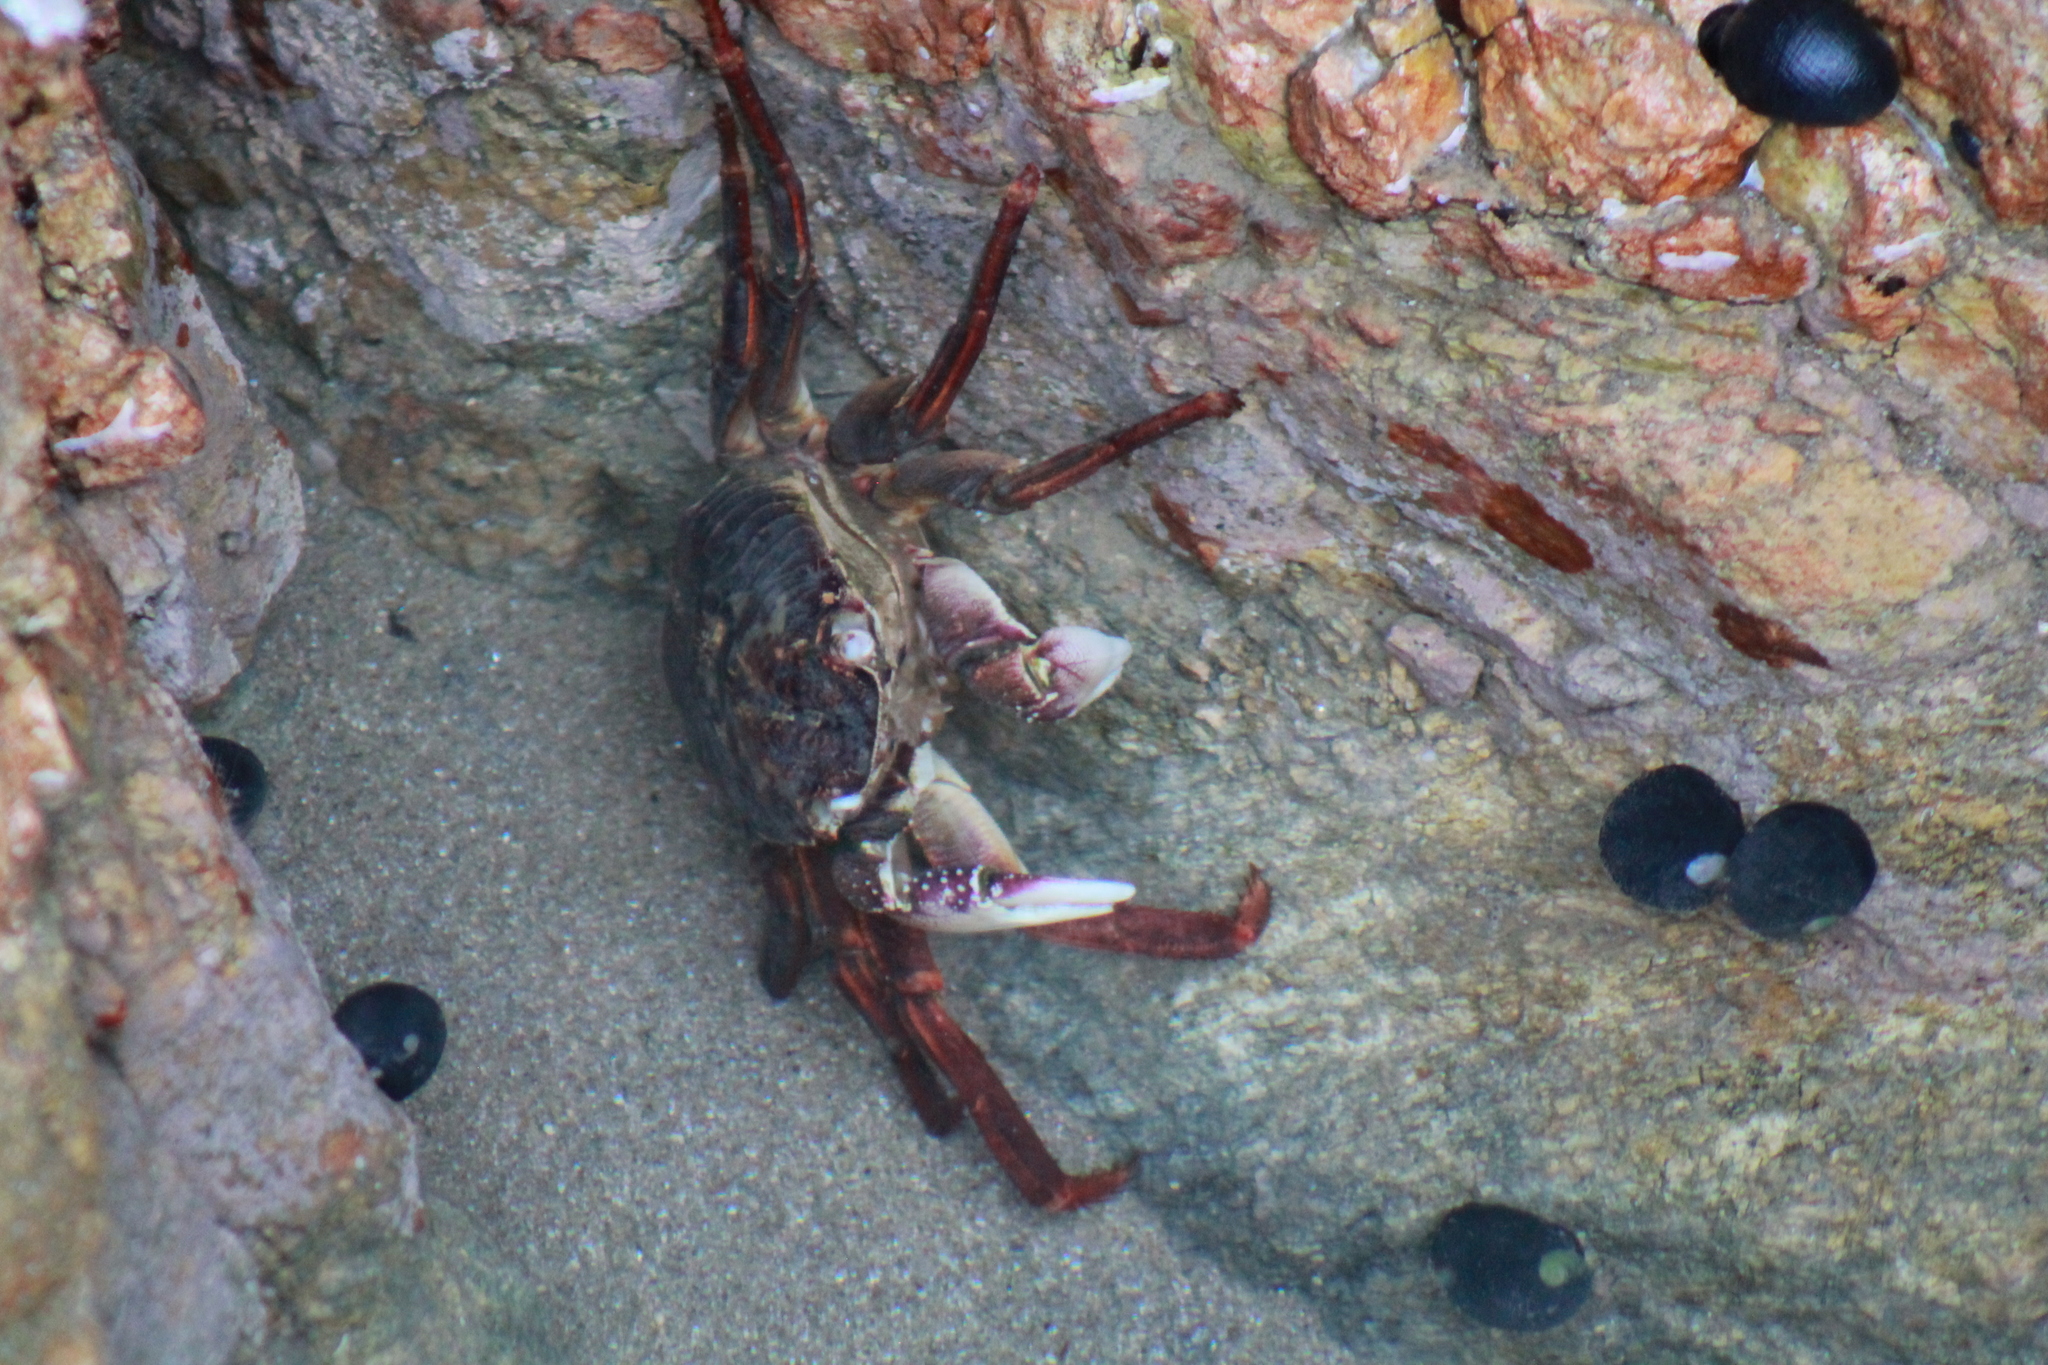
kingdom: Animalia
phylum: Arthropoda
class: Malacostraca
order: Decapoda
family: Grapsidae
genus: Leptograpsus
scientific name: Leptograpsus variegatus
